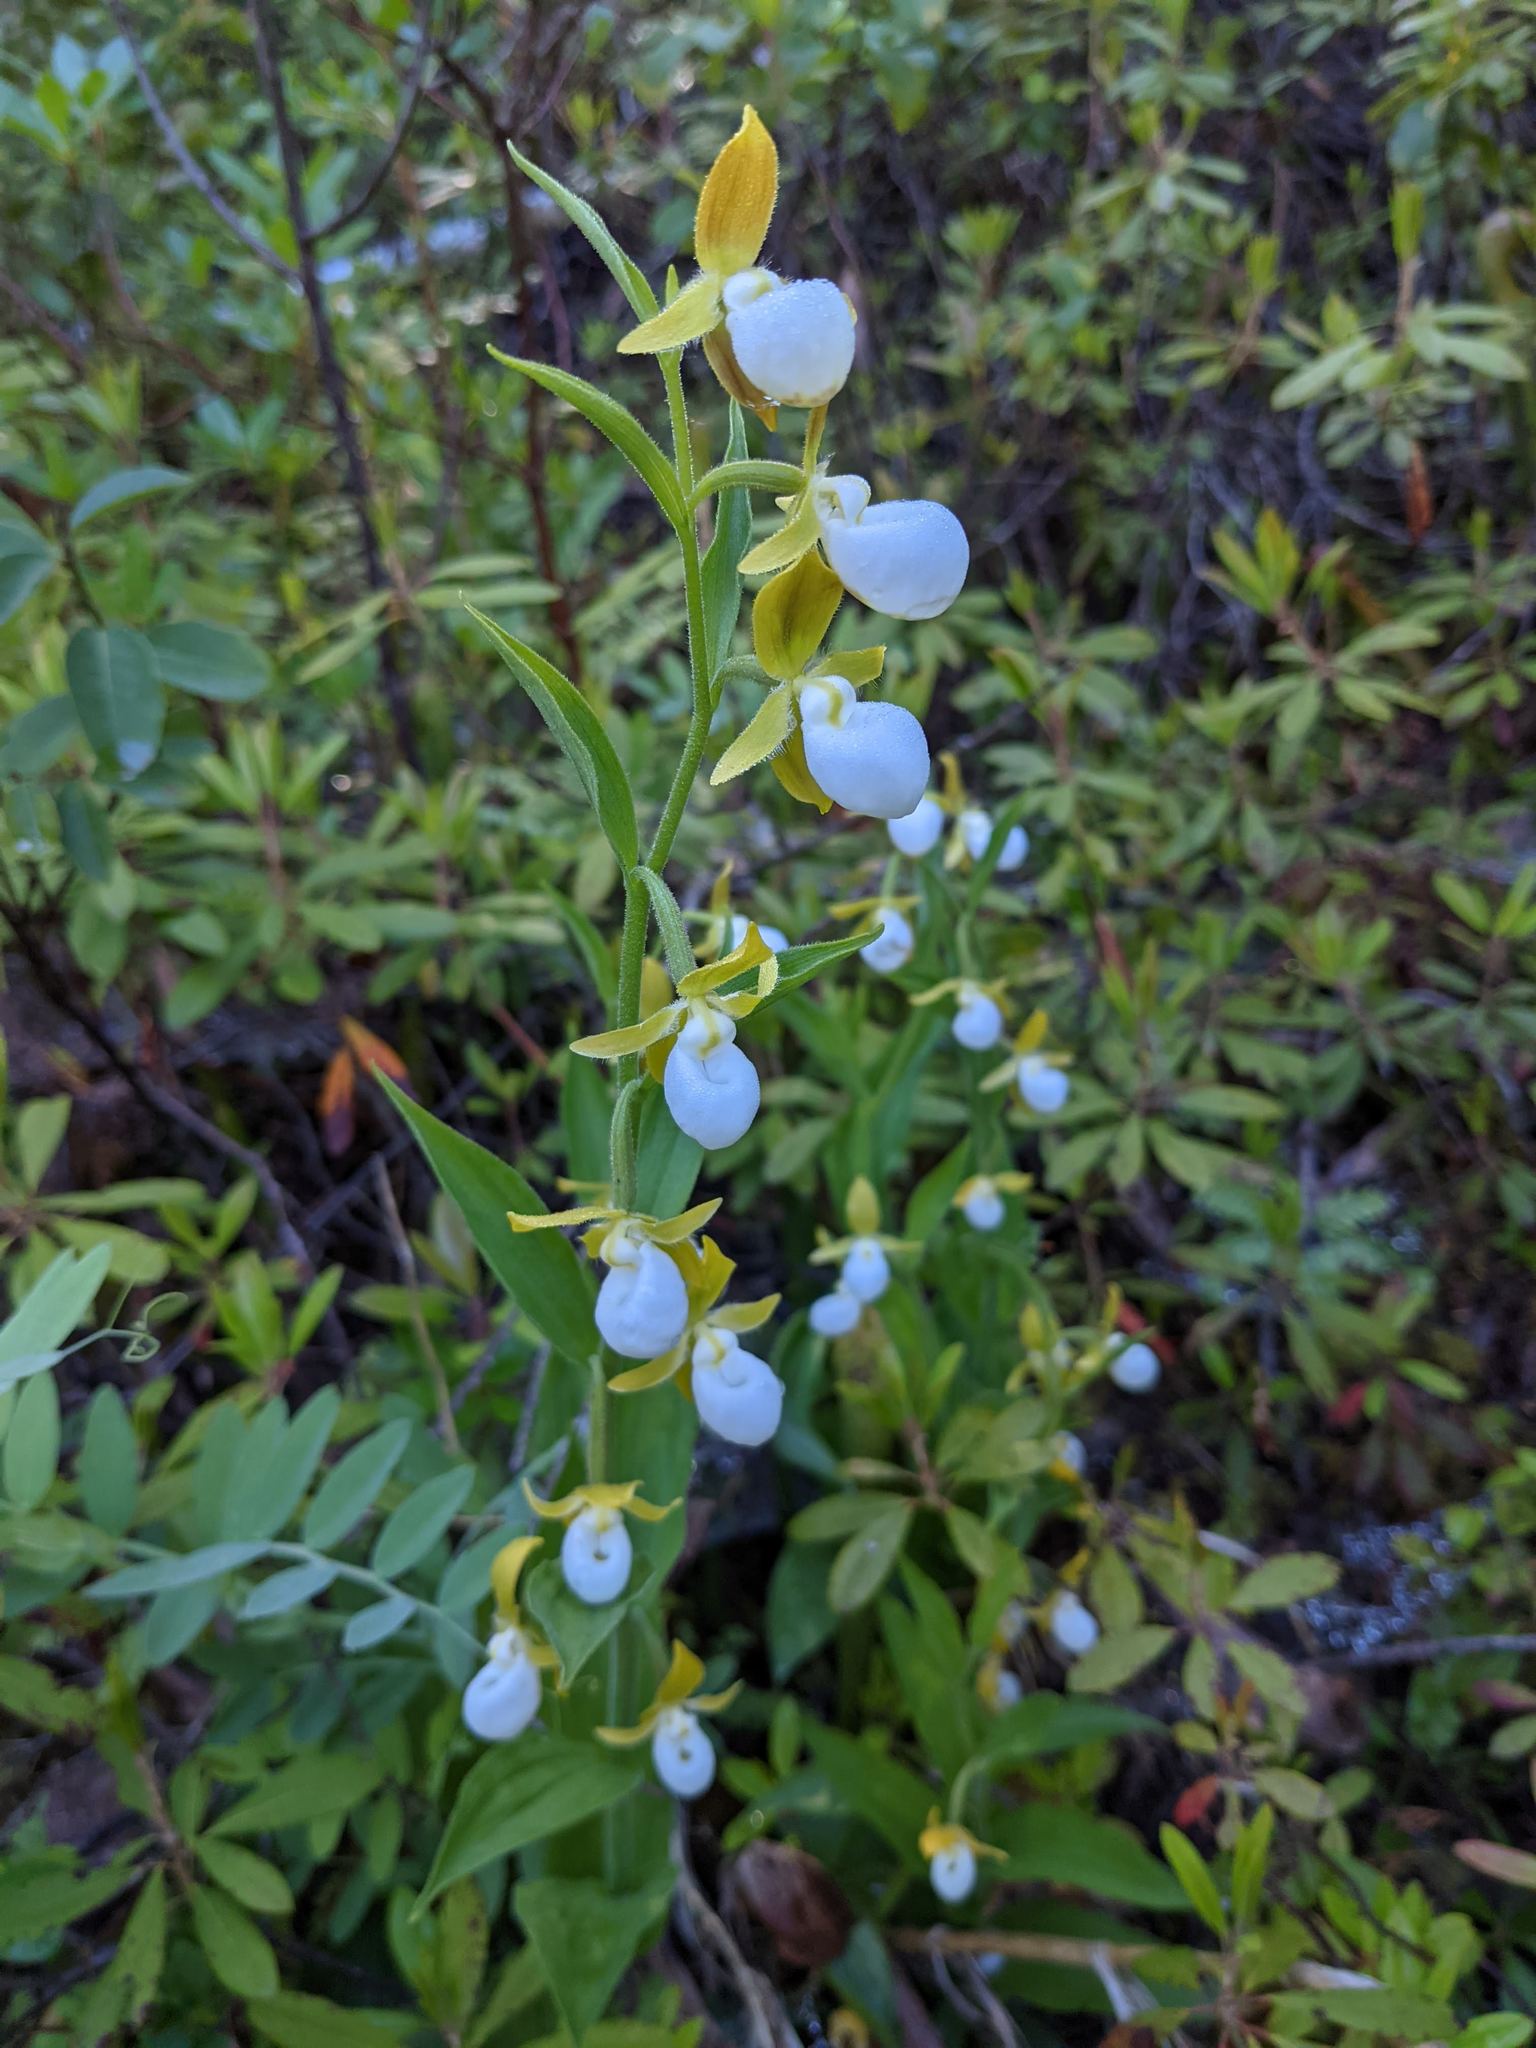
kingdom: Plantae
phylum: Tracheophyta
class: Liliopsida
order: Asparagales
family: Orchidaceae
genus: Cypripedium
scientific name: Cypripedium californicum
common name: California lady's slipper
